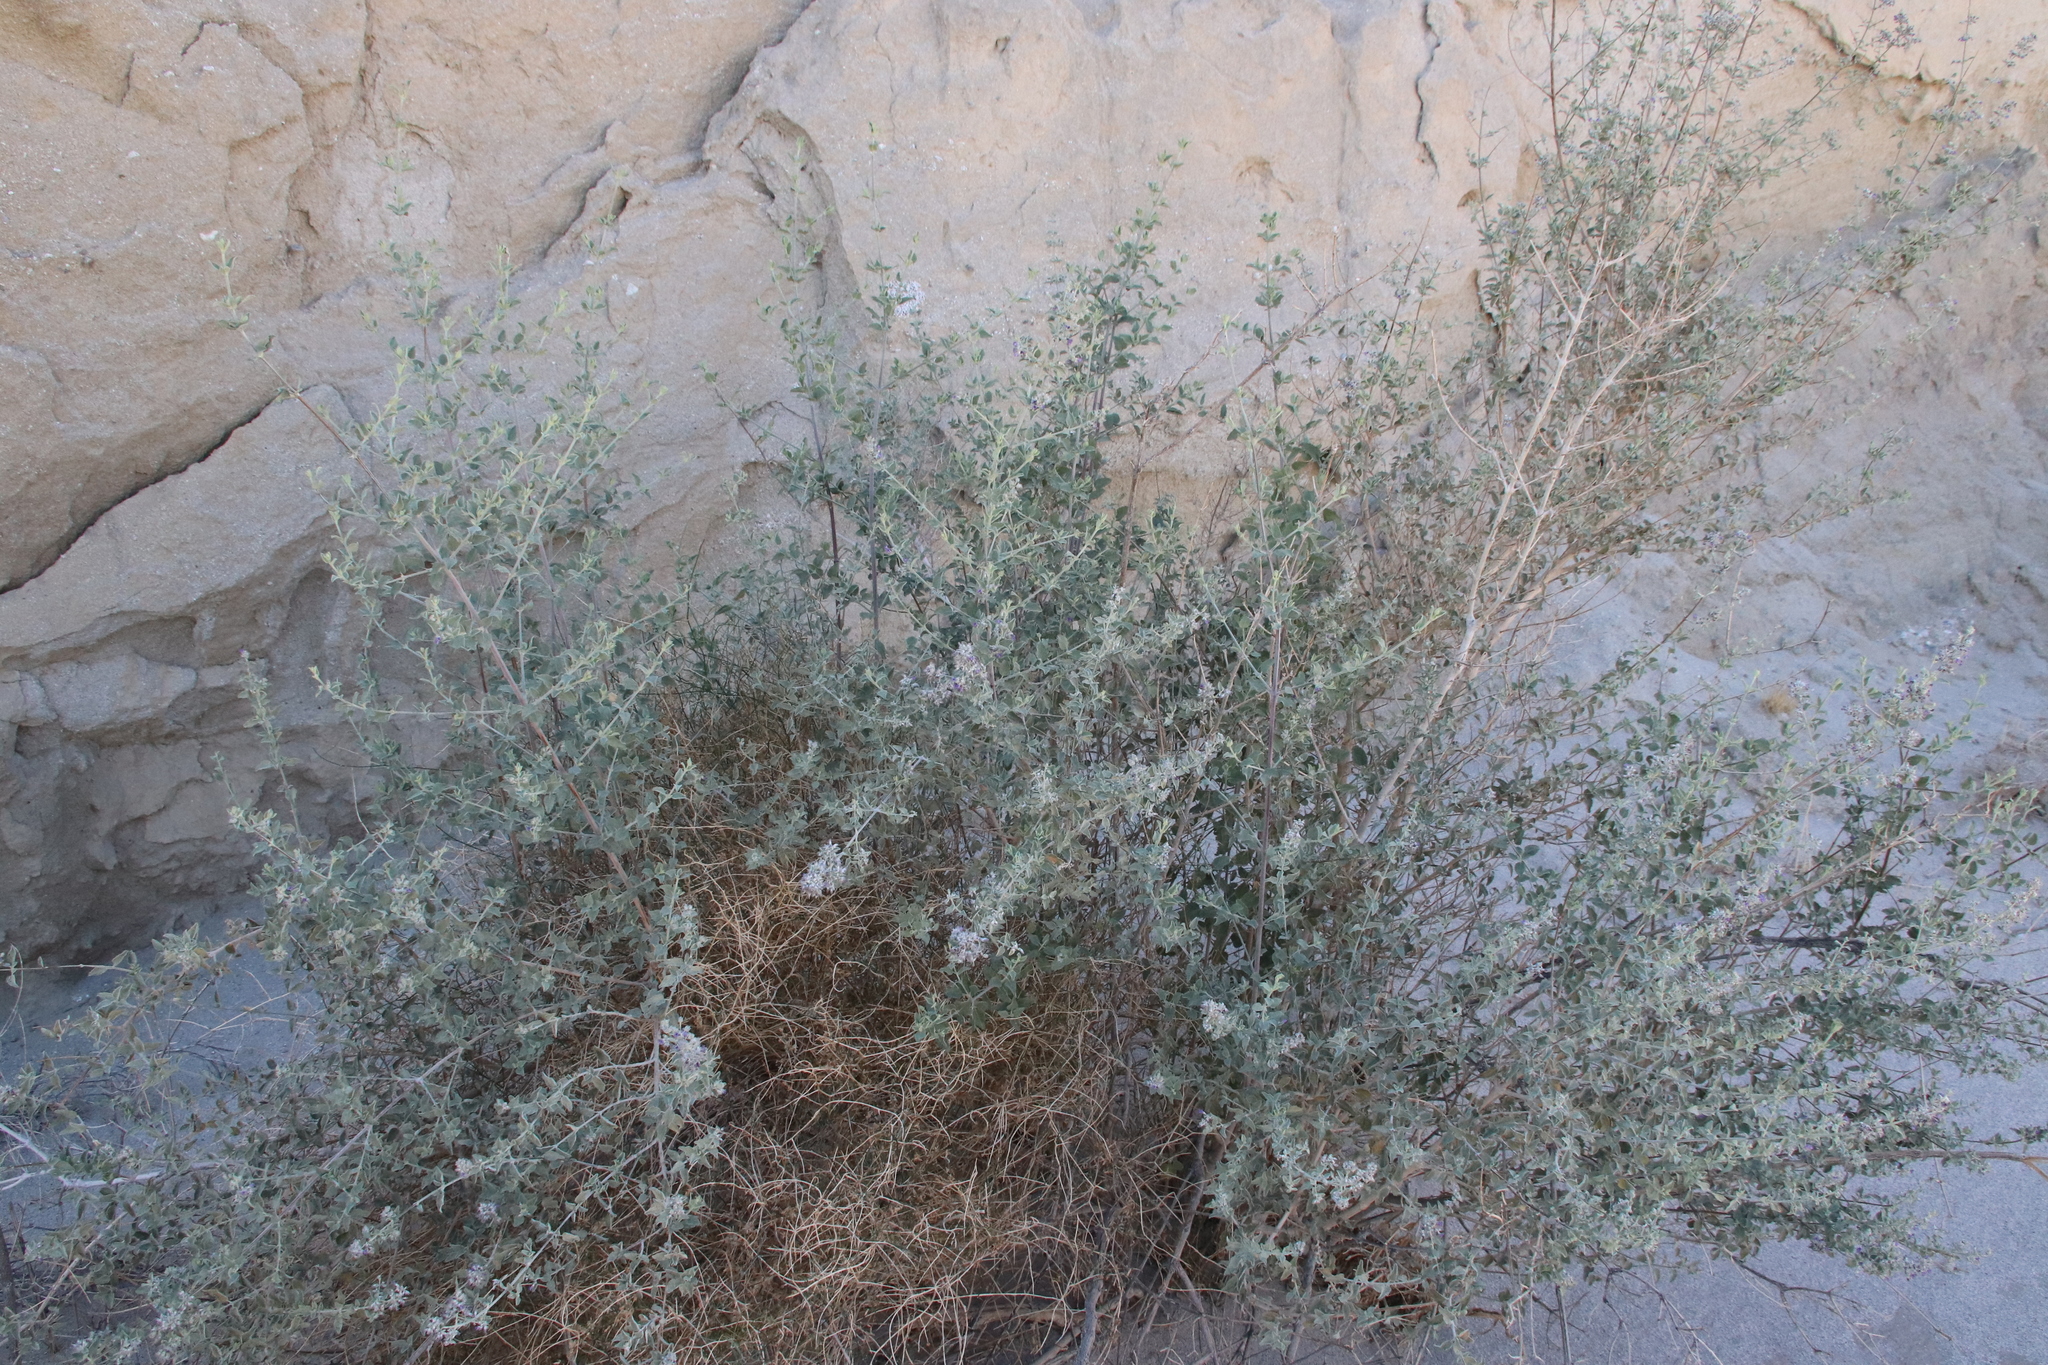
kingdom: Plantae
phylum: Tracheophyta
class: Magnoliopsida
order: Lamiales
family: Lamiaceae
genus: Condea
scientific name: Condea emoryi
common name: Chia
